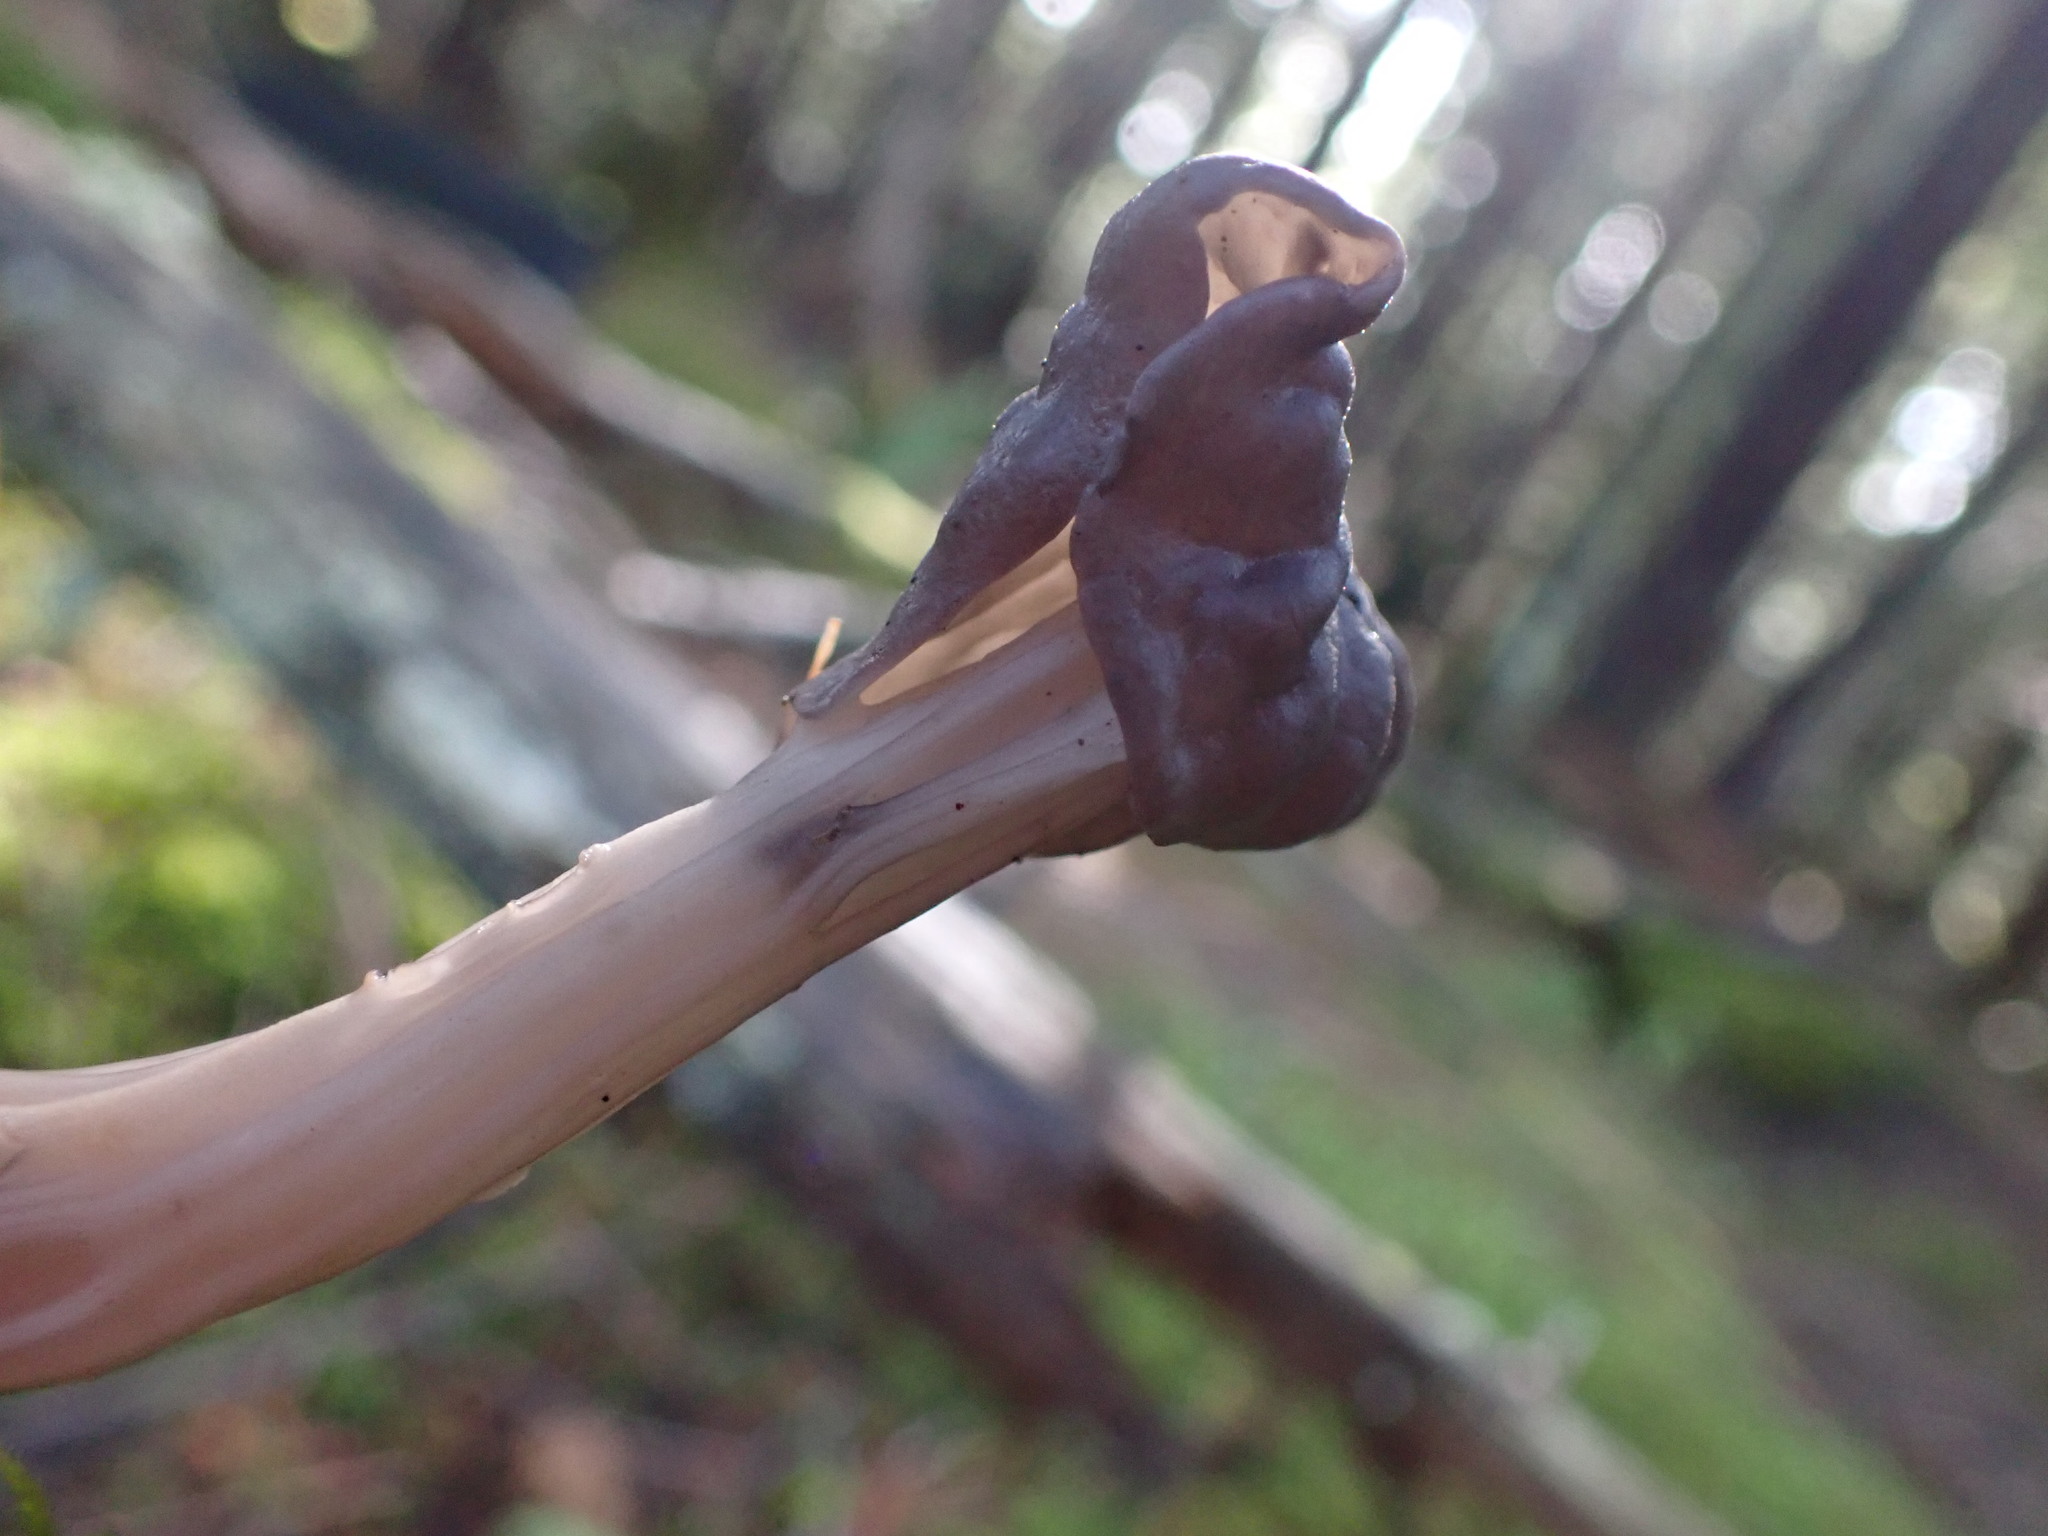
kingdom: Fungi
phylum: Ascomycota
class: Pezizomycetes
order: Pezizales
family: Helvellaceae
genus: Helvella
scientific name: Helvella vespertina
